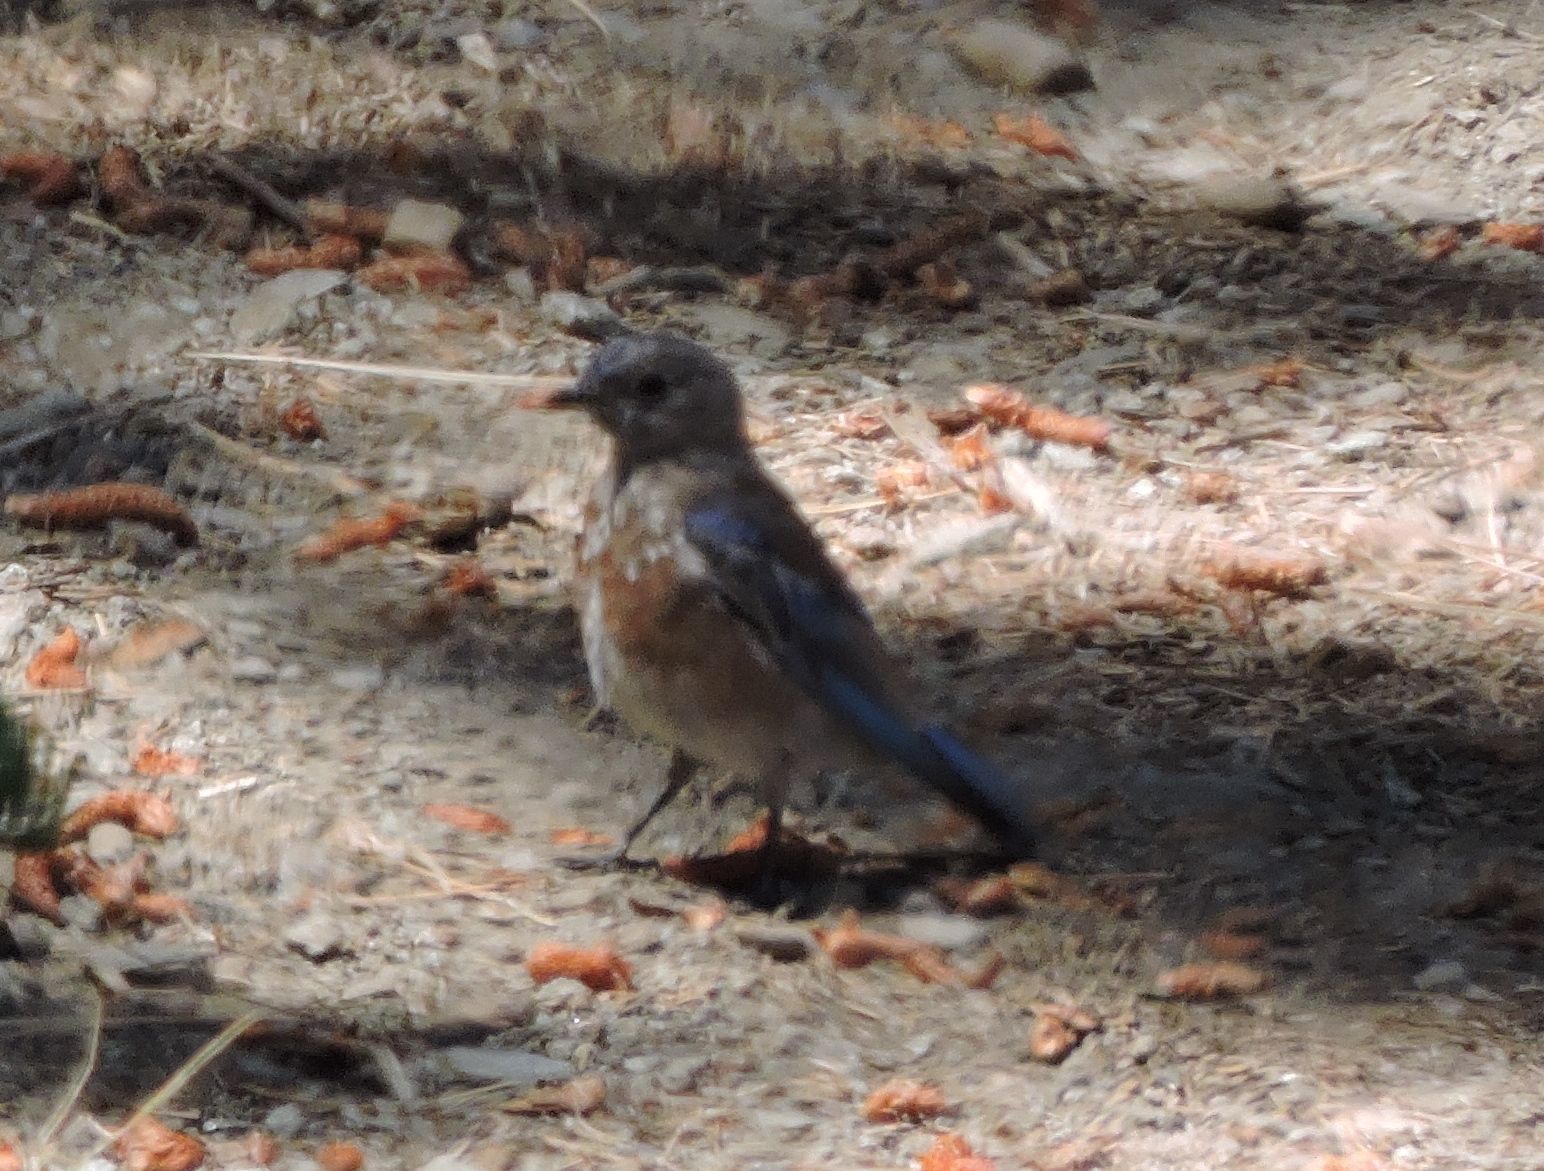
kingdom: Animalia
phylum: Chordata
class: Aves
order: Passeriformes
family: Turdidae
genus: Sialia
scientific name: Sialia mexicana
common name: Western bluebird
